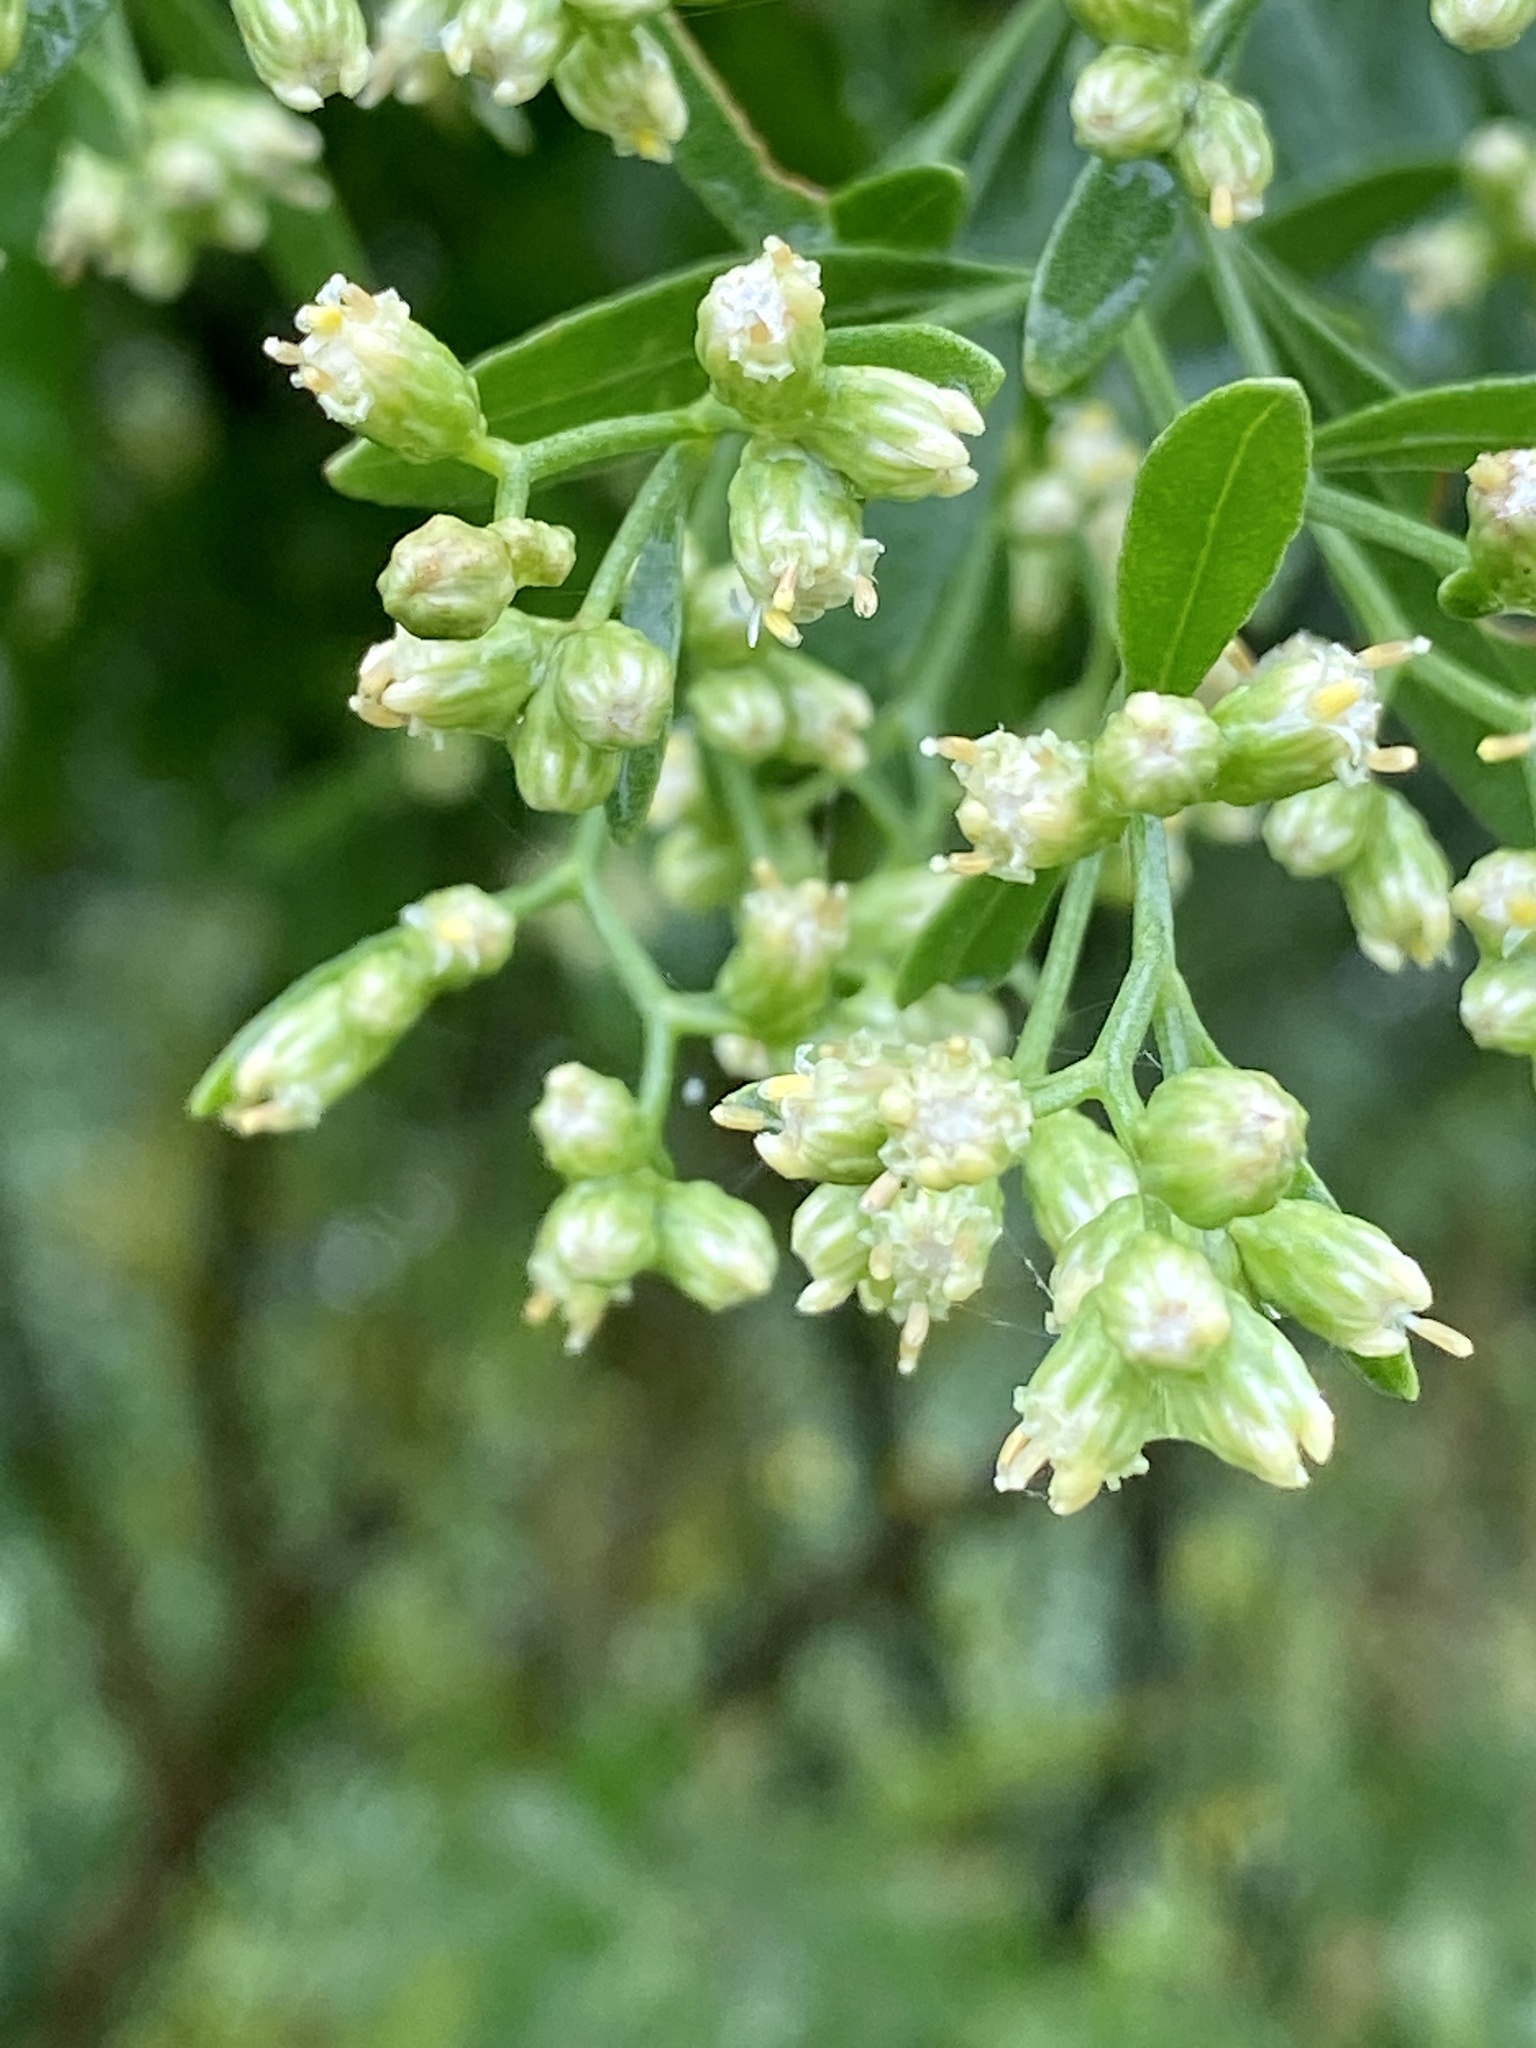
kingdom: Plantae
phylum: Tracheophyta
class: Magnoliopsida
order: Asterales
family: Asteraceae
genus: Baccharis
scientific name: Baccharis halimifolia
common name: Eastern baccharis
